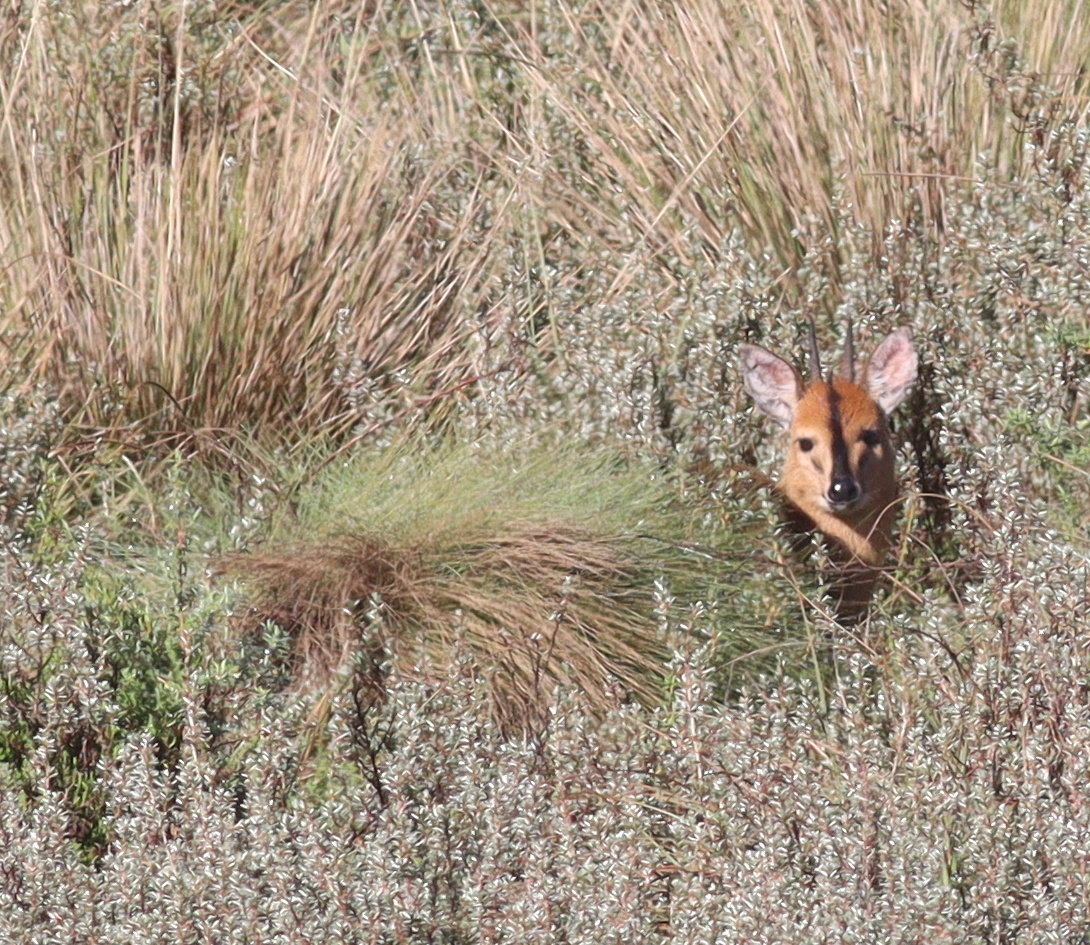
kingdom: Animalia
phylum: Chordata
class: Mammalia
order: Artiodactyla
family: Bovidae
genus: Sylvicapra
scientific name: Sylvicapra grimmia
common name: Bush duiker
